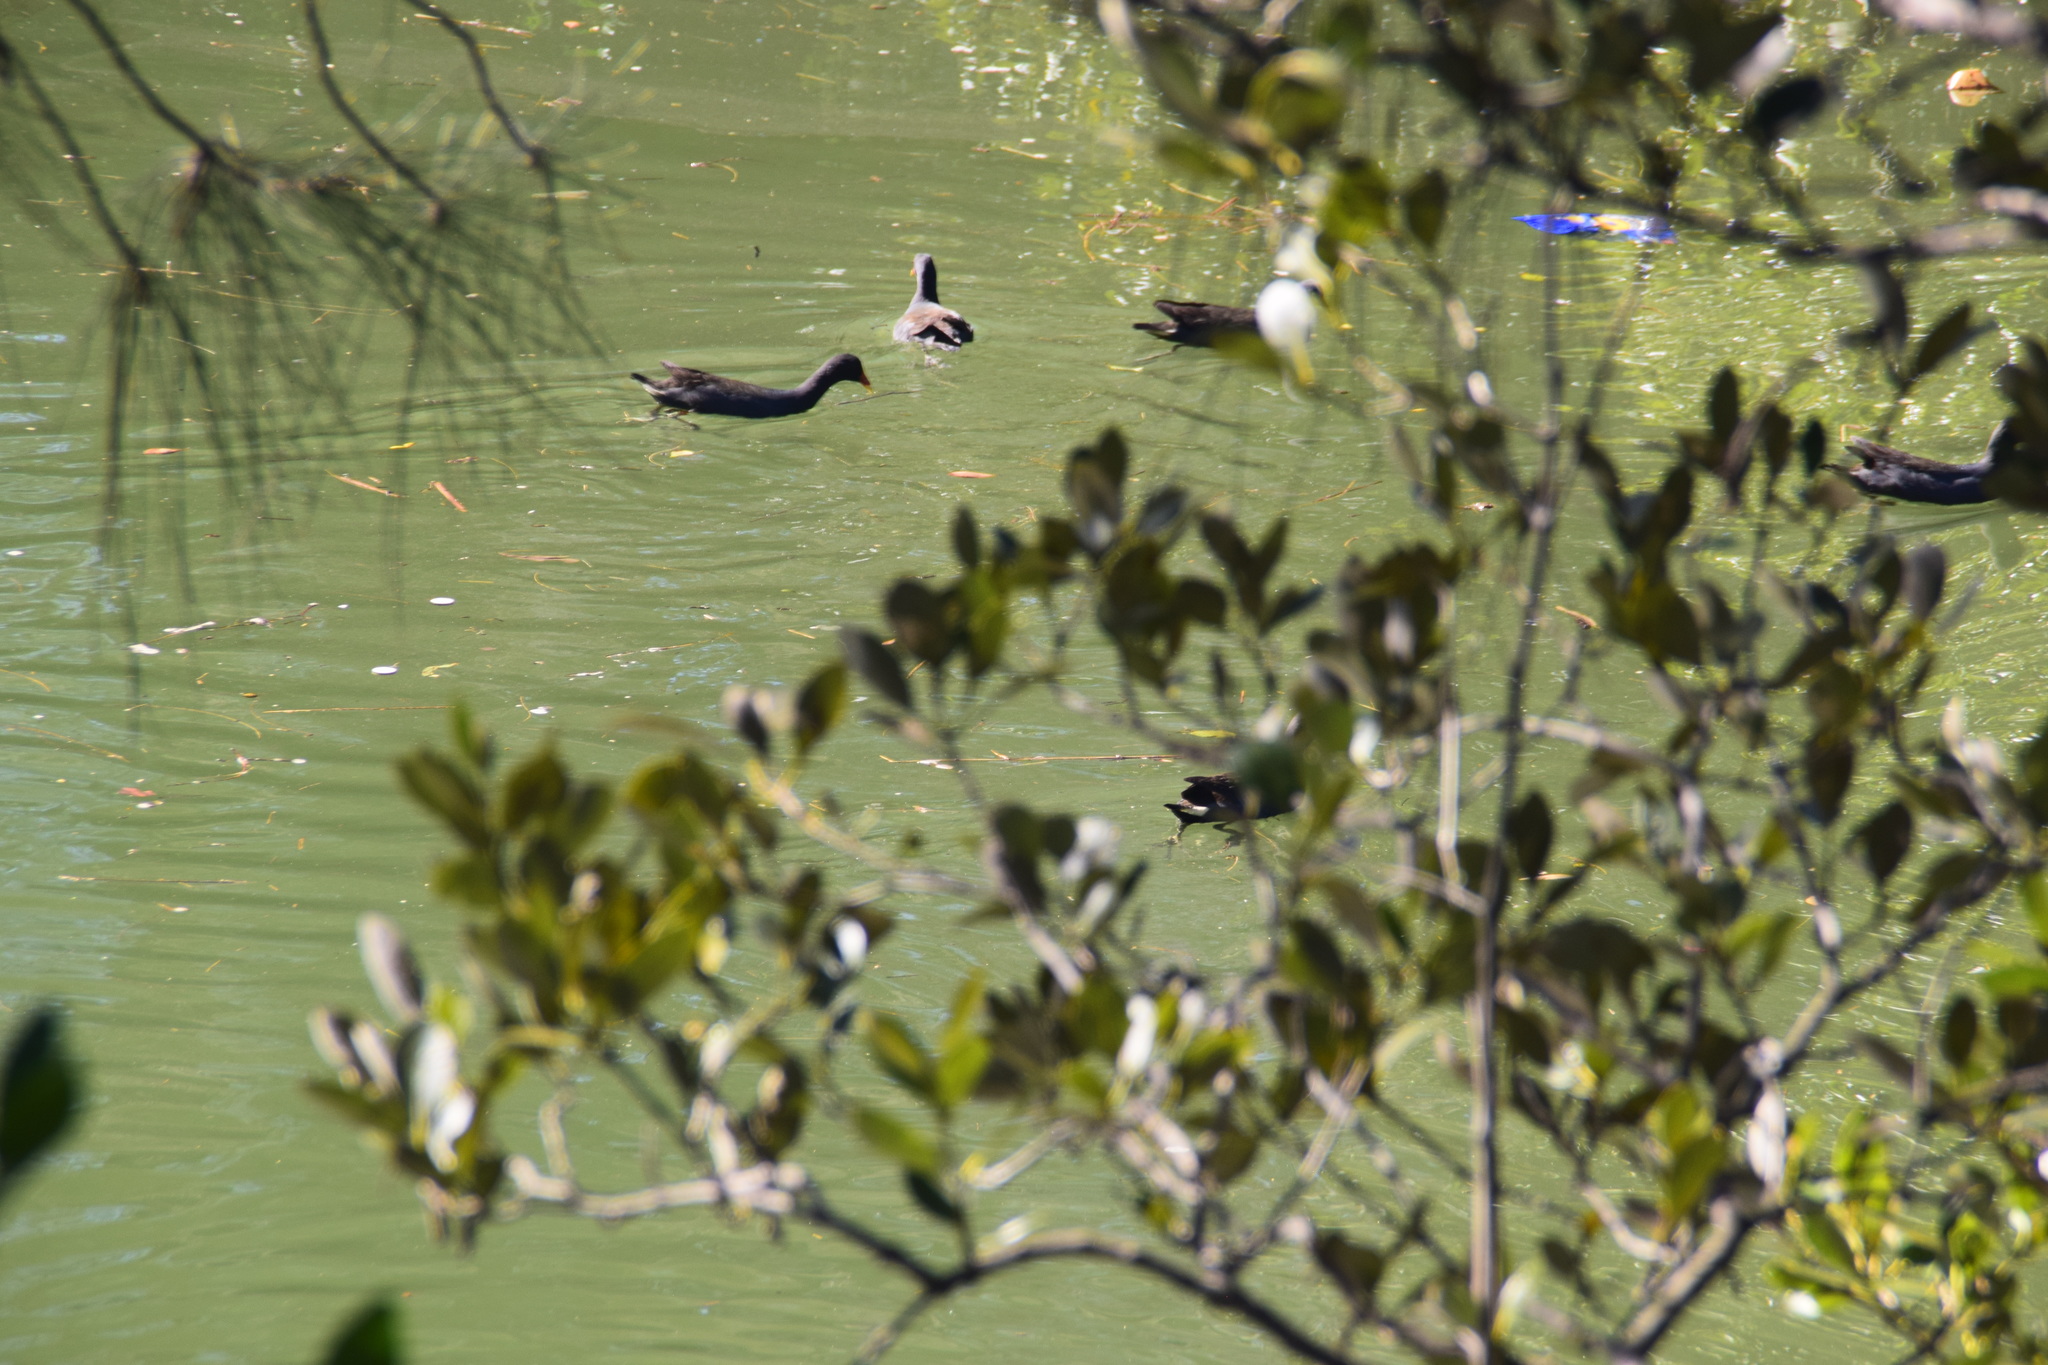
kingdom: Animalia
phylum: Chordata
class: Aves
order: Gruiformes
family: Rallidae
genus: Gallinula
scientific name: Gallinula tenebrosa
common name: Dusky moorhen
